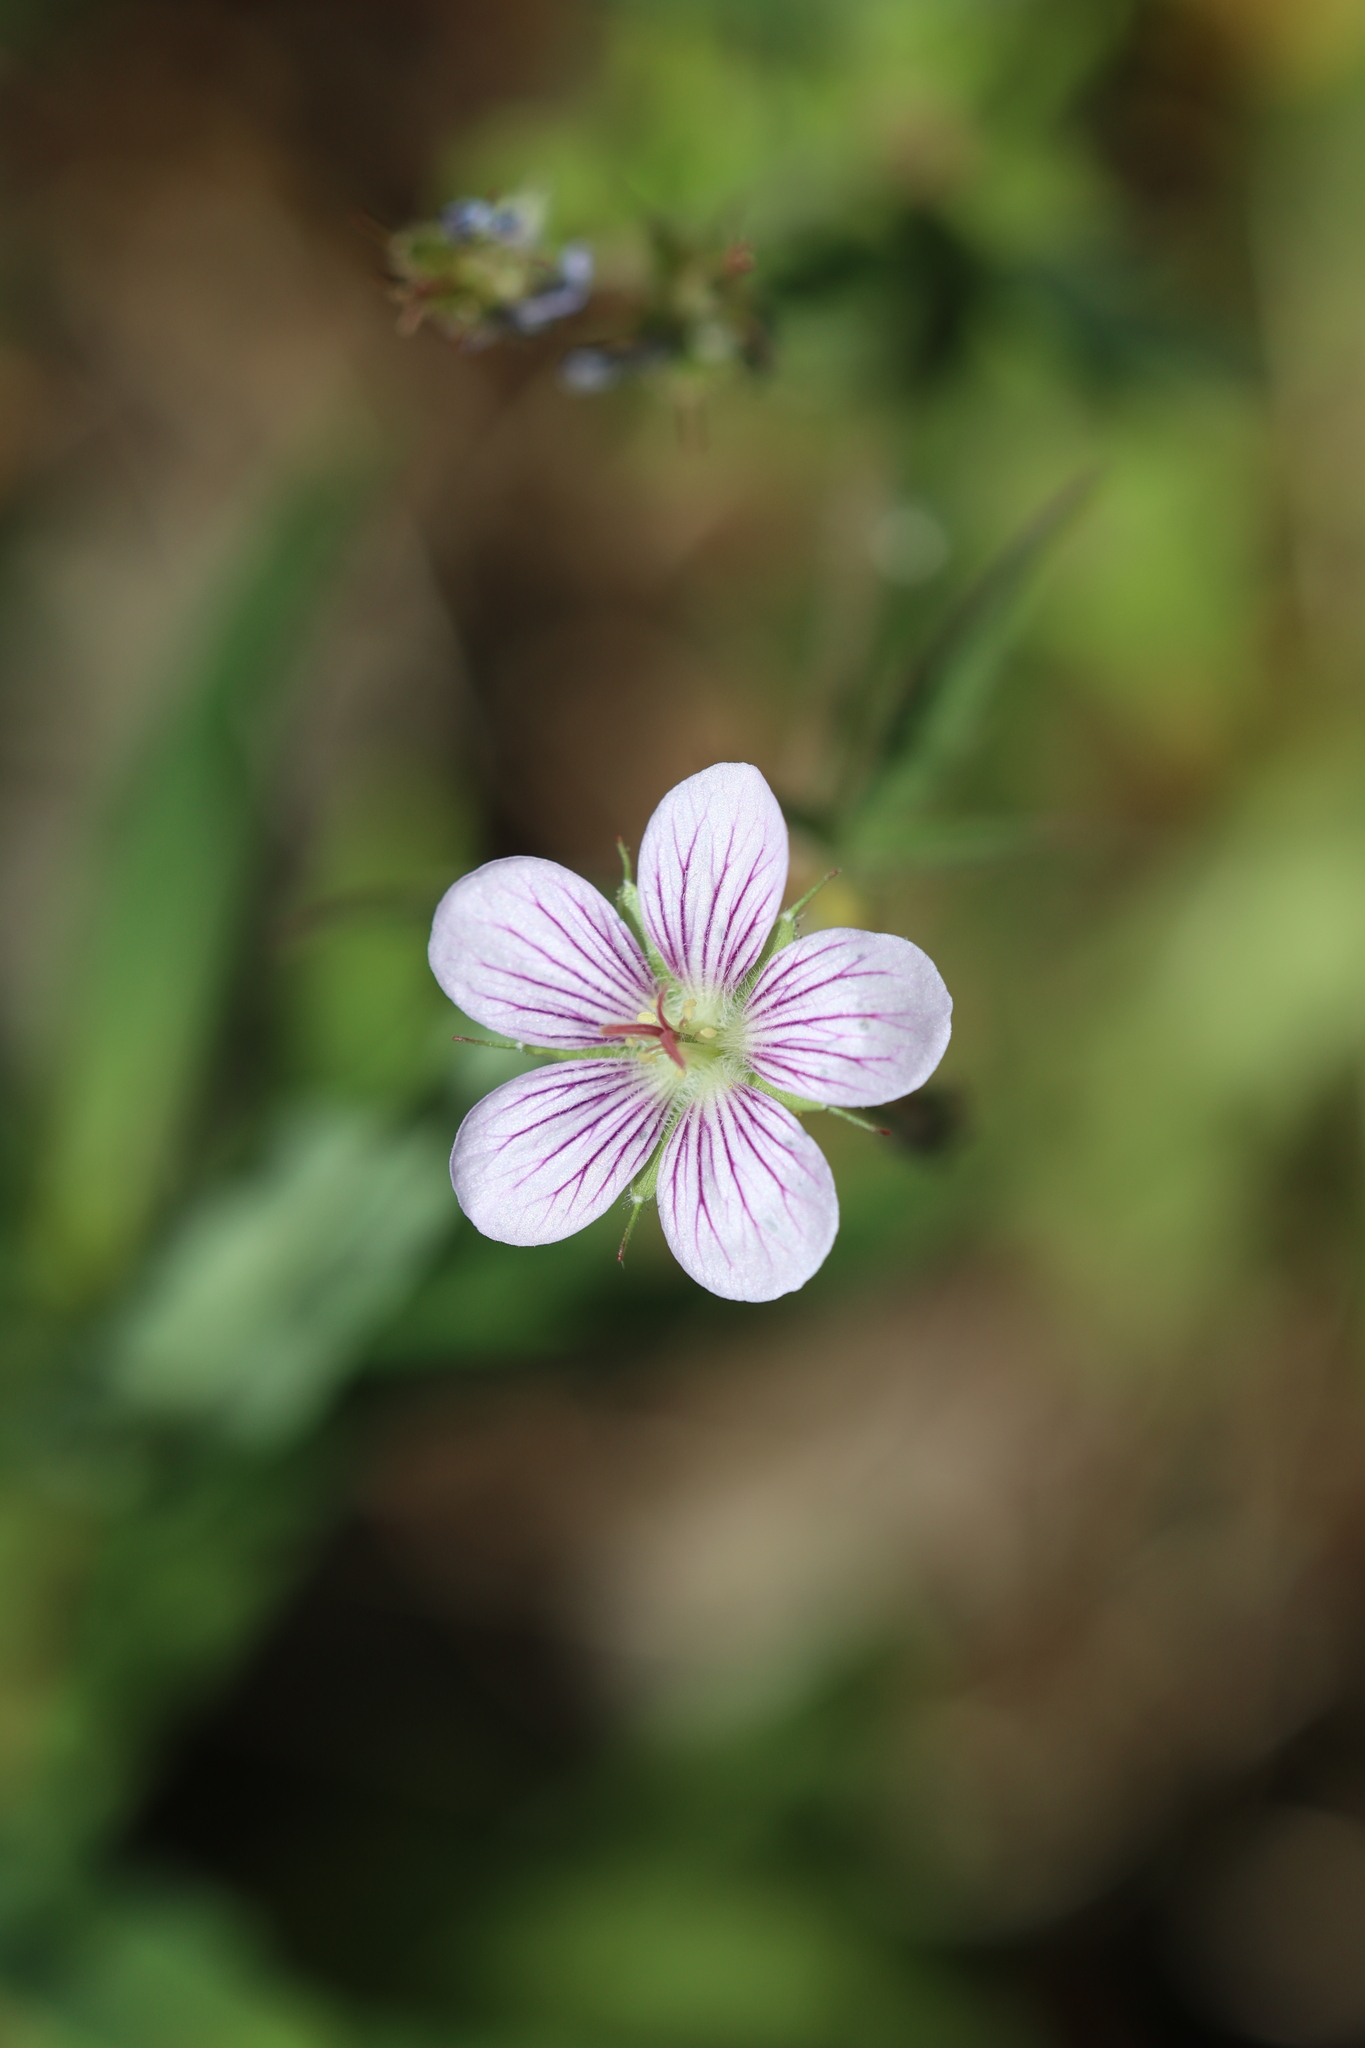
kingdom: Plantae
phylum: Tracheophyta
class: Magnoliopsida
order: Geraniales
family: Geraniaceae
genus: Geranium
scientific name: Geranium richardsonii
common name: Richardson's crane's-bill
